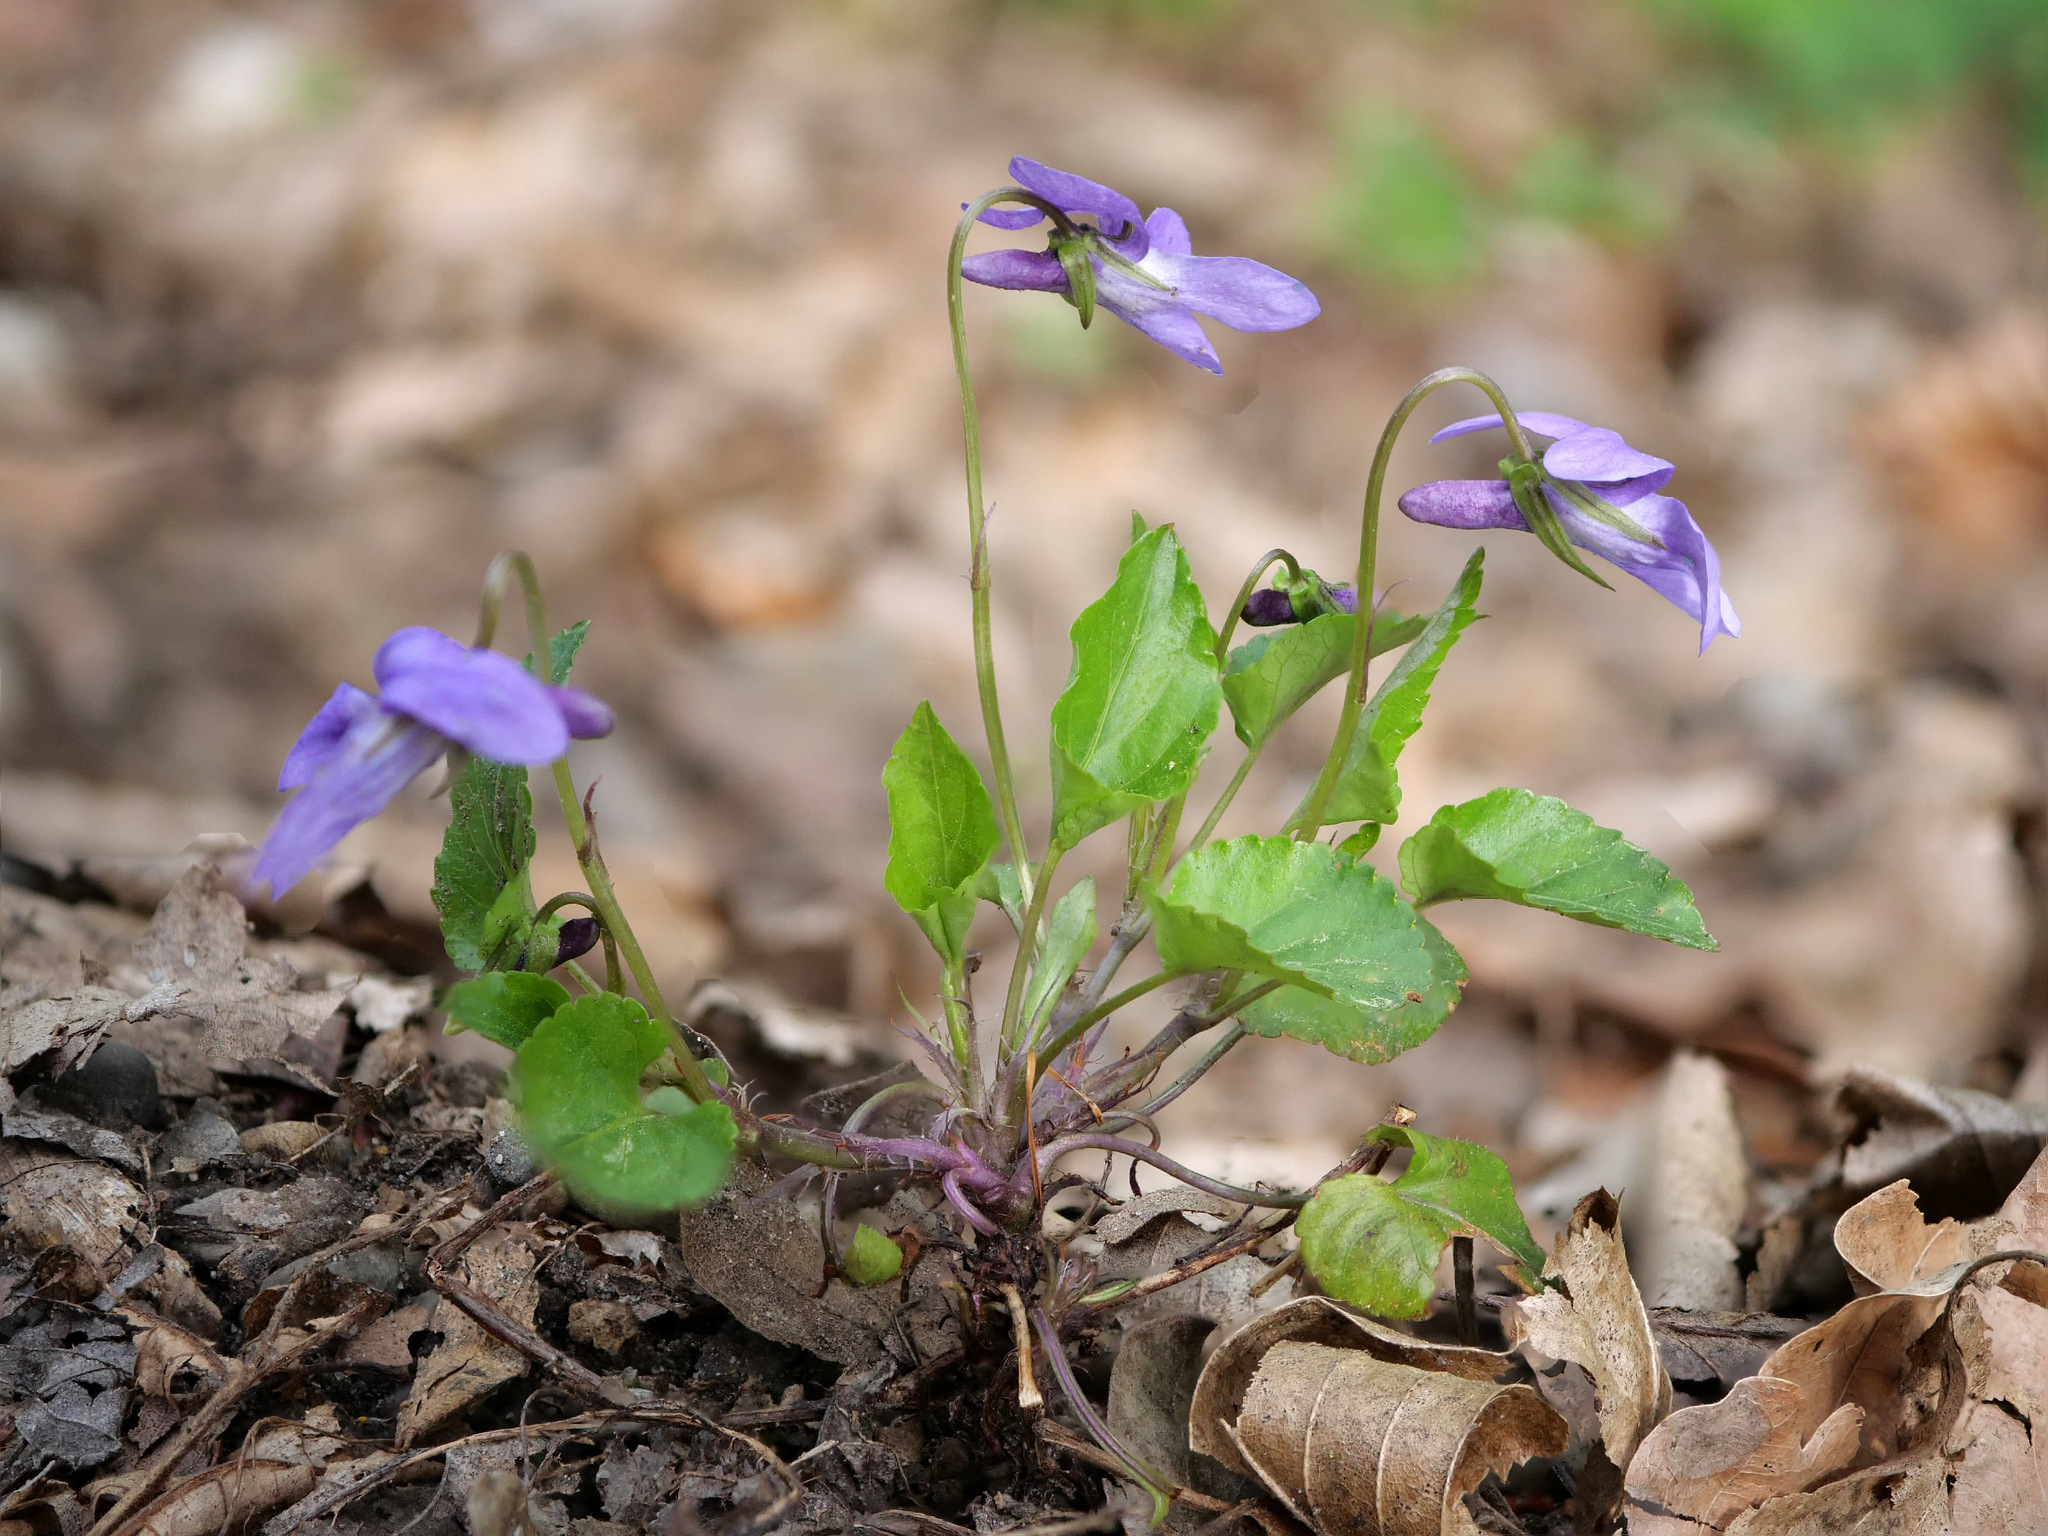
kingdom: Plantae
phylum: Tracheophyta
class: Magnoliopsida
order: Malpighiales
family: Violaceae
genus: Viola
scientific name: Viola reichenbachiana
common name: Early dog-violet
